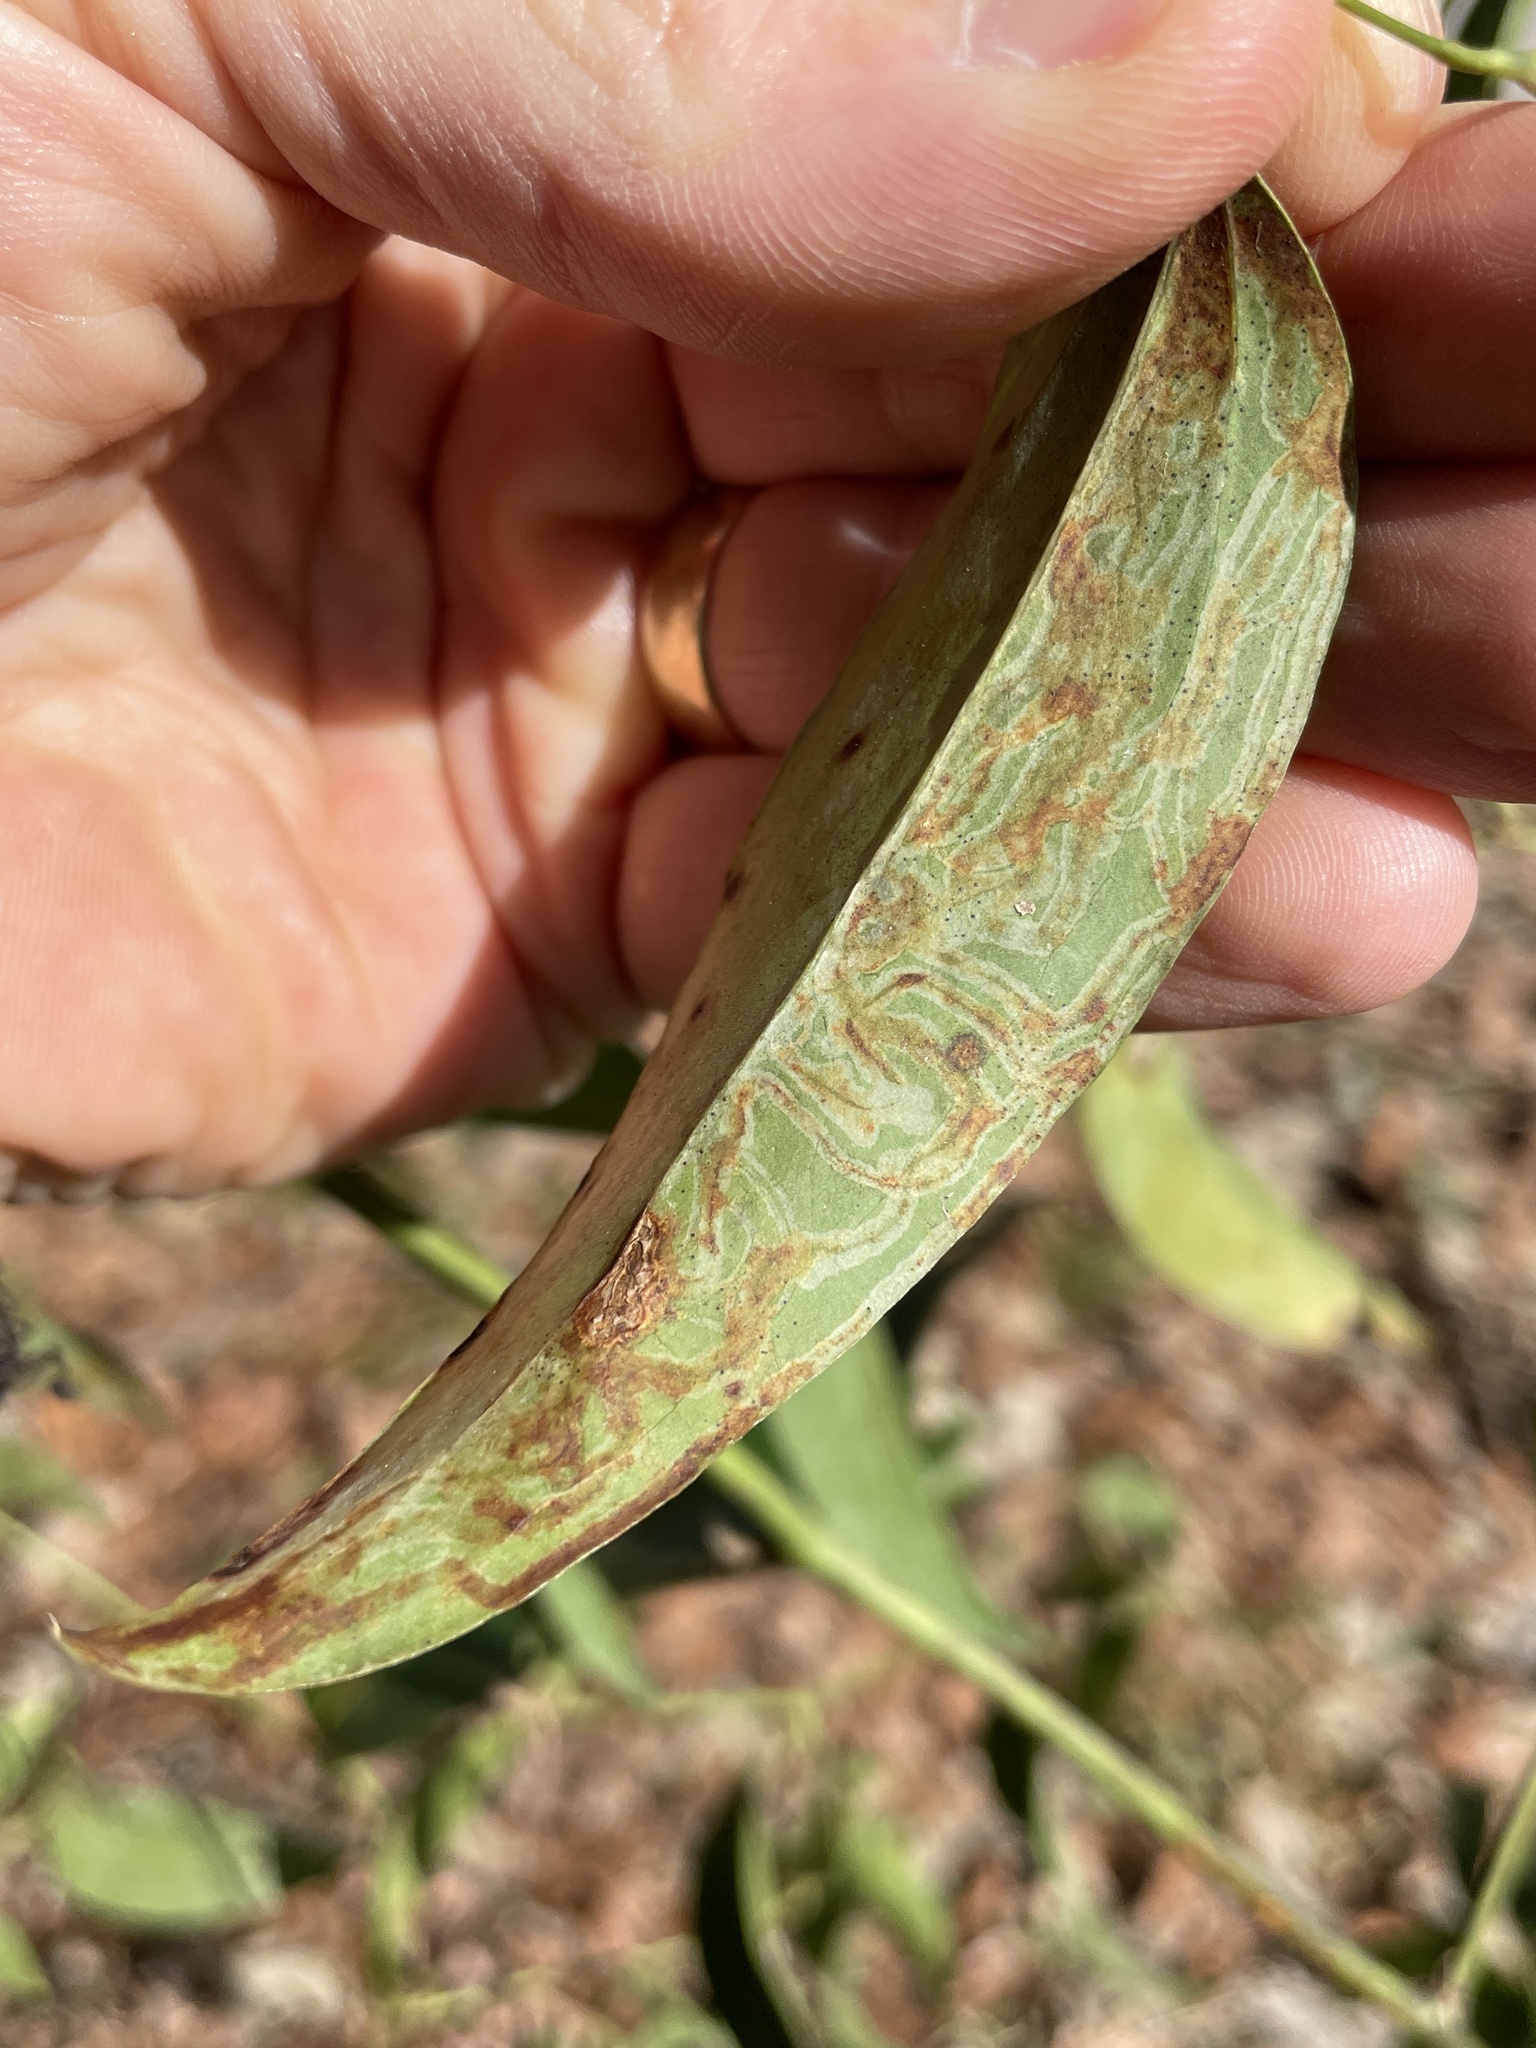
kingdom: Animalia
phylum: Arthropoda
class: Insecta
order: Lepidoptera
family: Gracillariidae
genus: Marmara
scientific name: Marmara smilacisella
